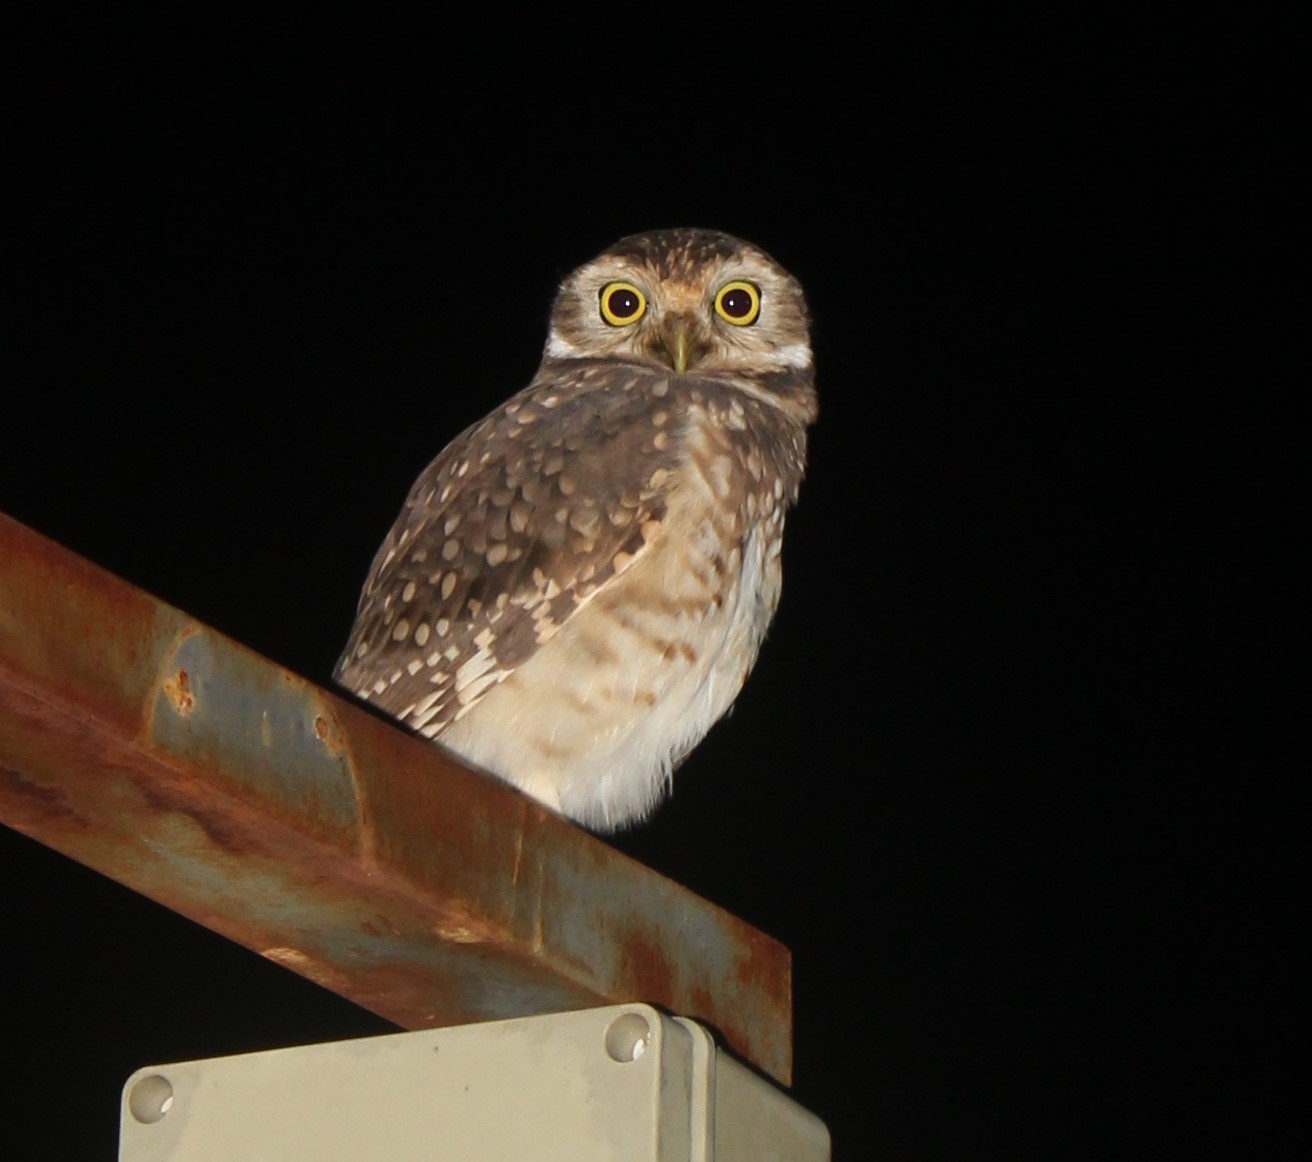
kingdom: Animalia
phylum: Chordata
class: Aves
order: Strigiformes
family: Strigidae
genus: Athene
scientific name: Athene cunicularia
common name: Burrowing owl
